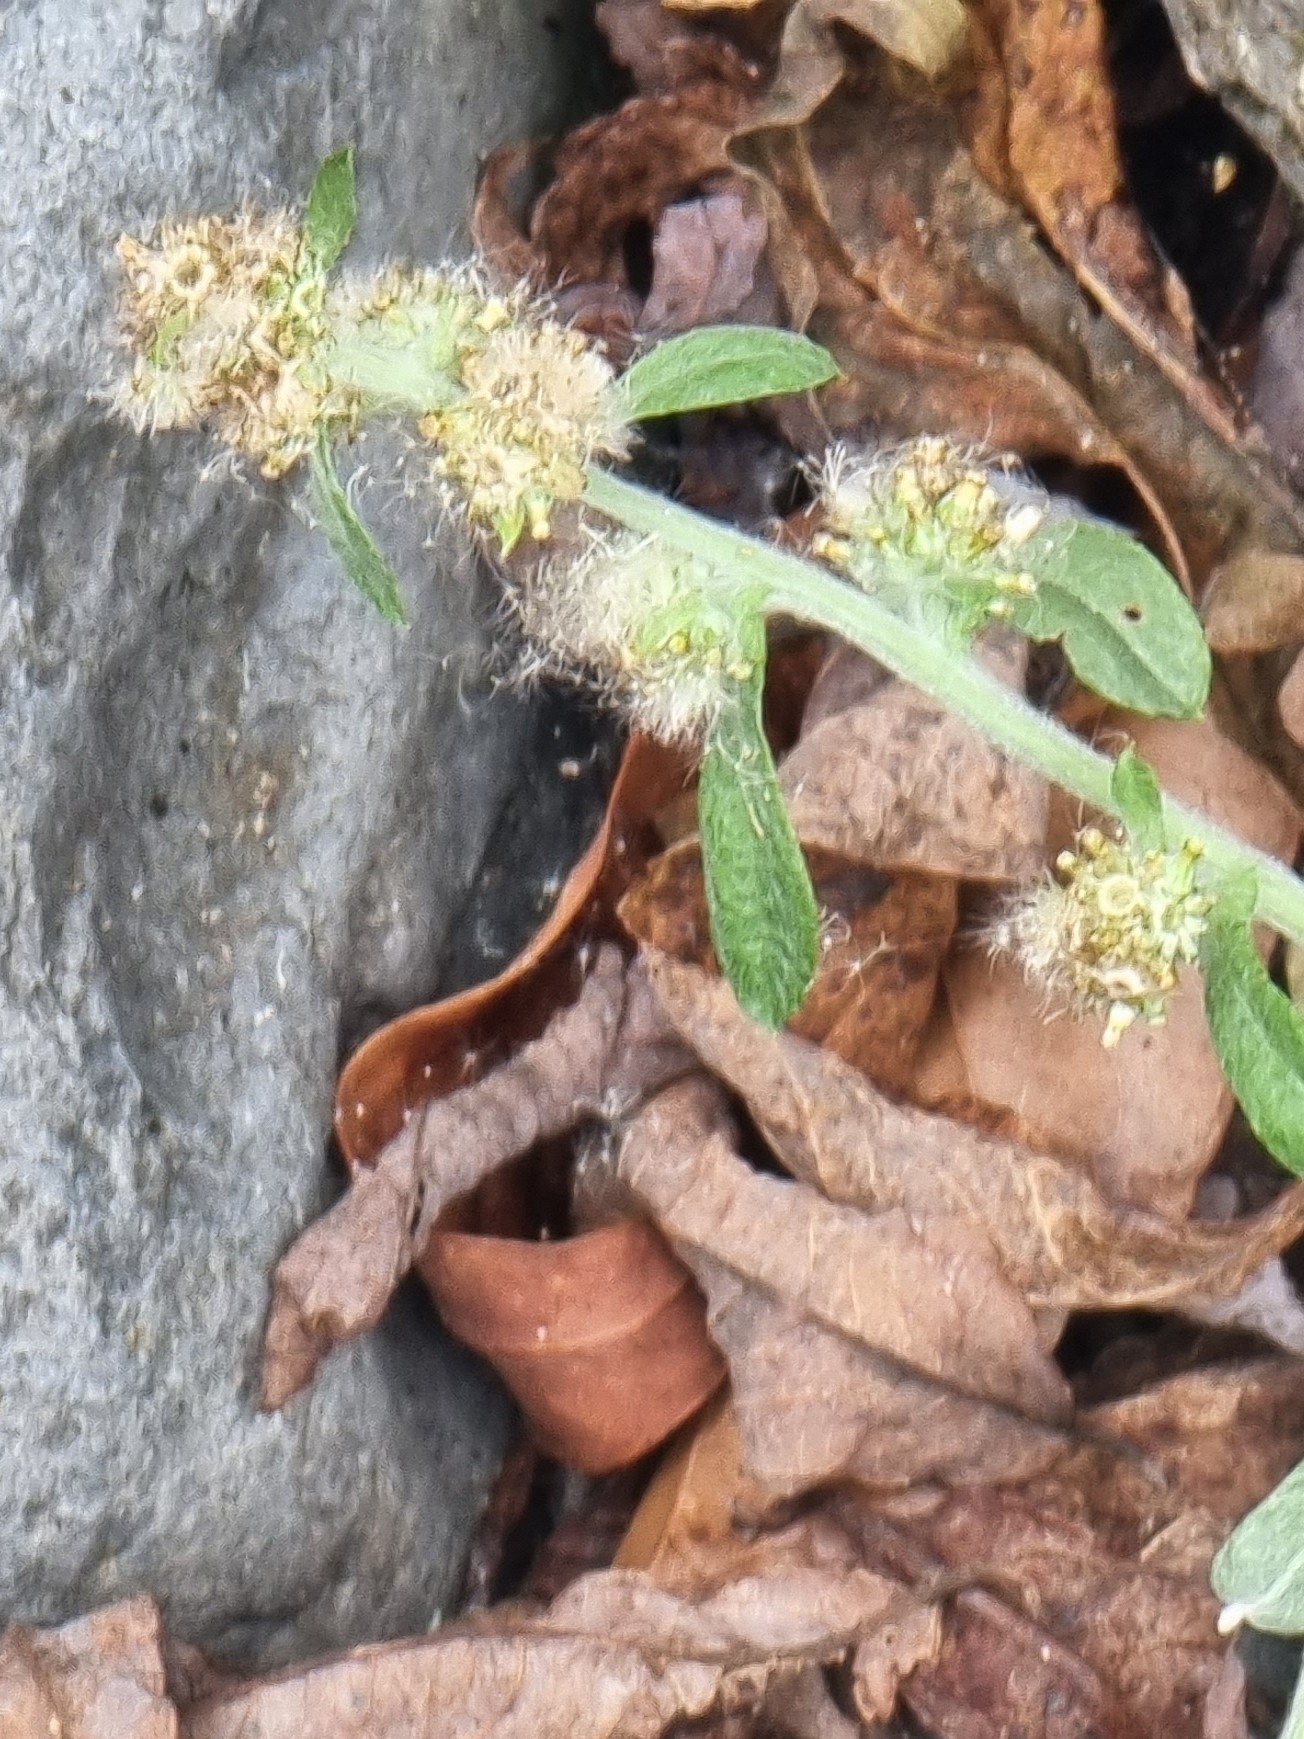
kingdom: Plantae
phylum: Tracheophyta
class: Magnoliopsida
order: Asterales
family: Asteraceae
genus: Gamochaeta
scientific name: Gamochaeta pensylvanica
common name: Pennsylvania everlasting
